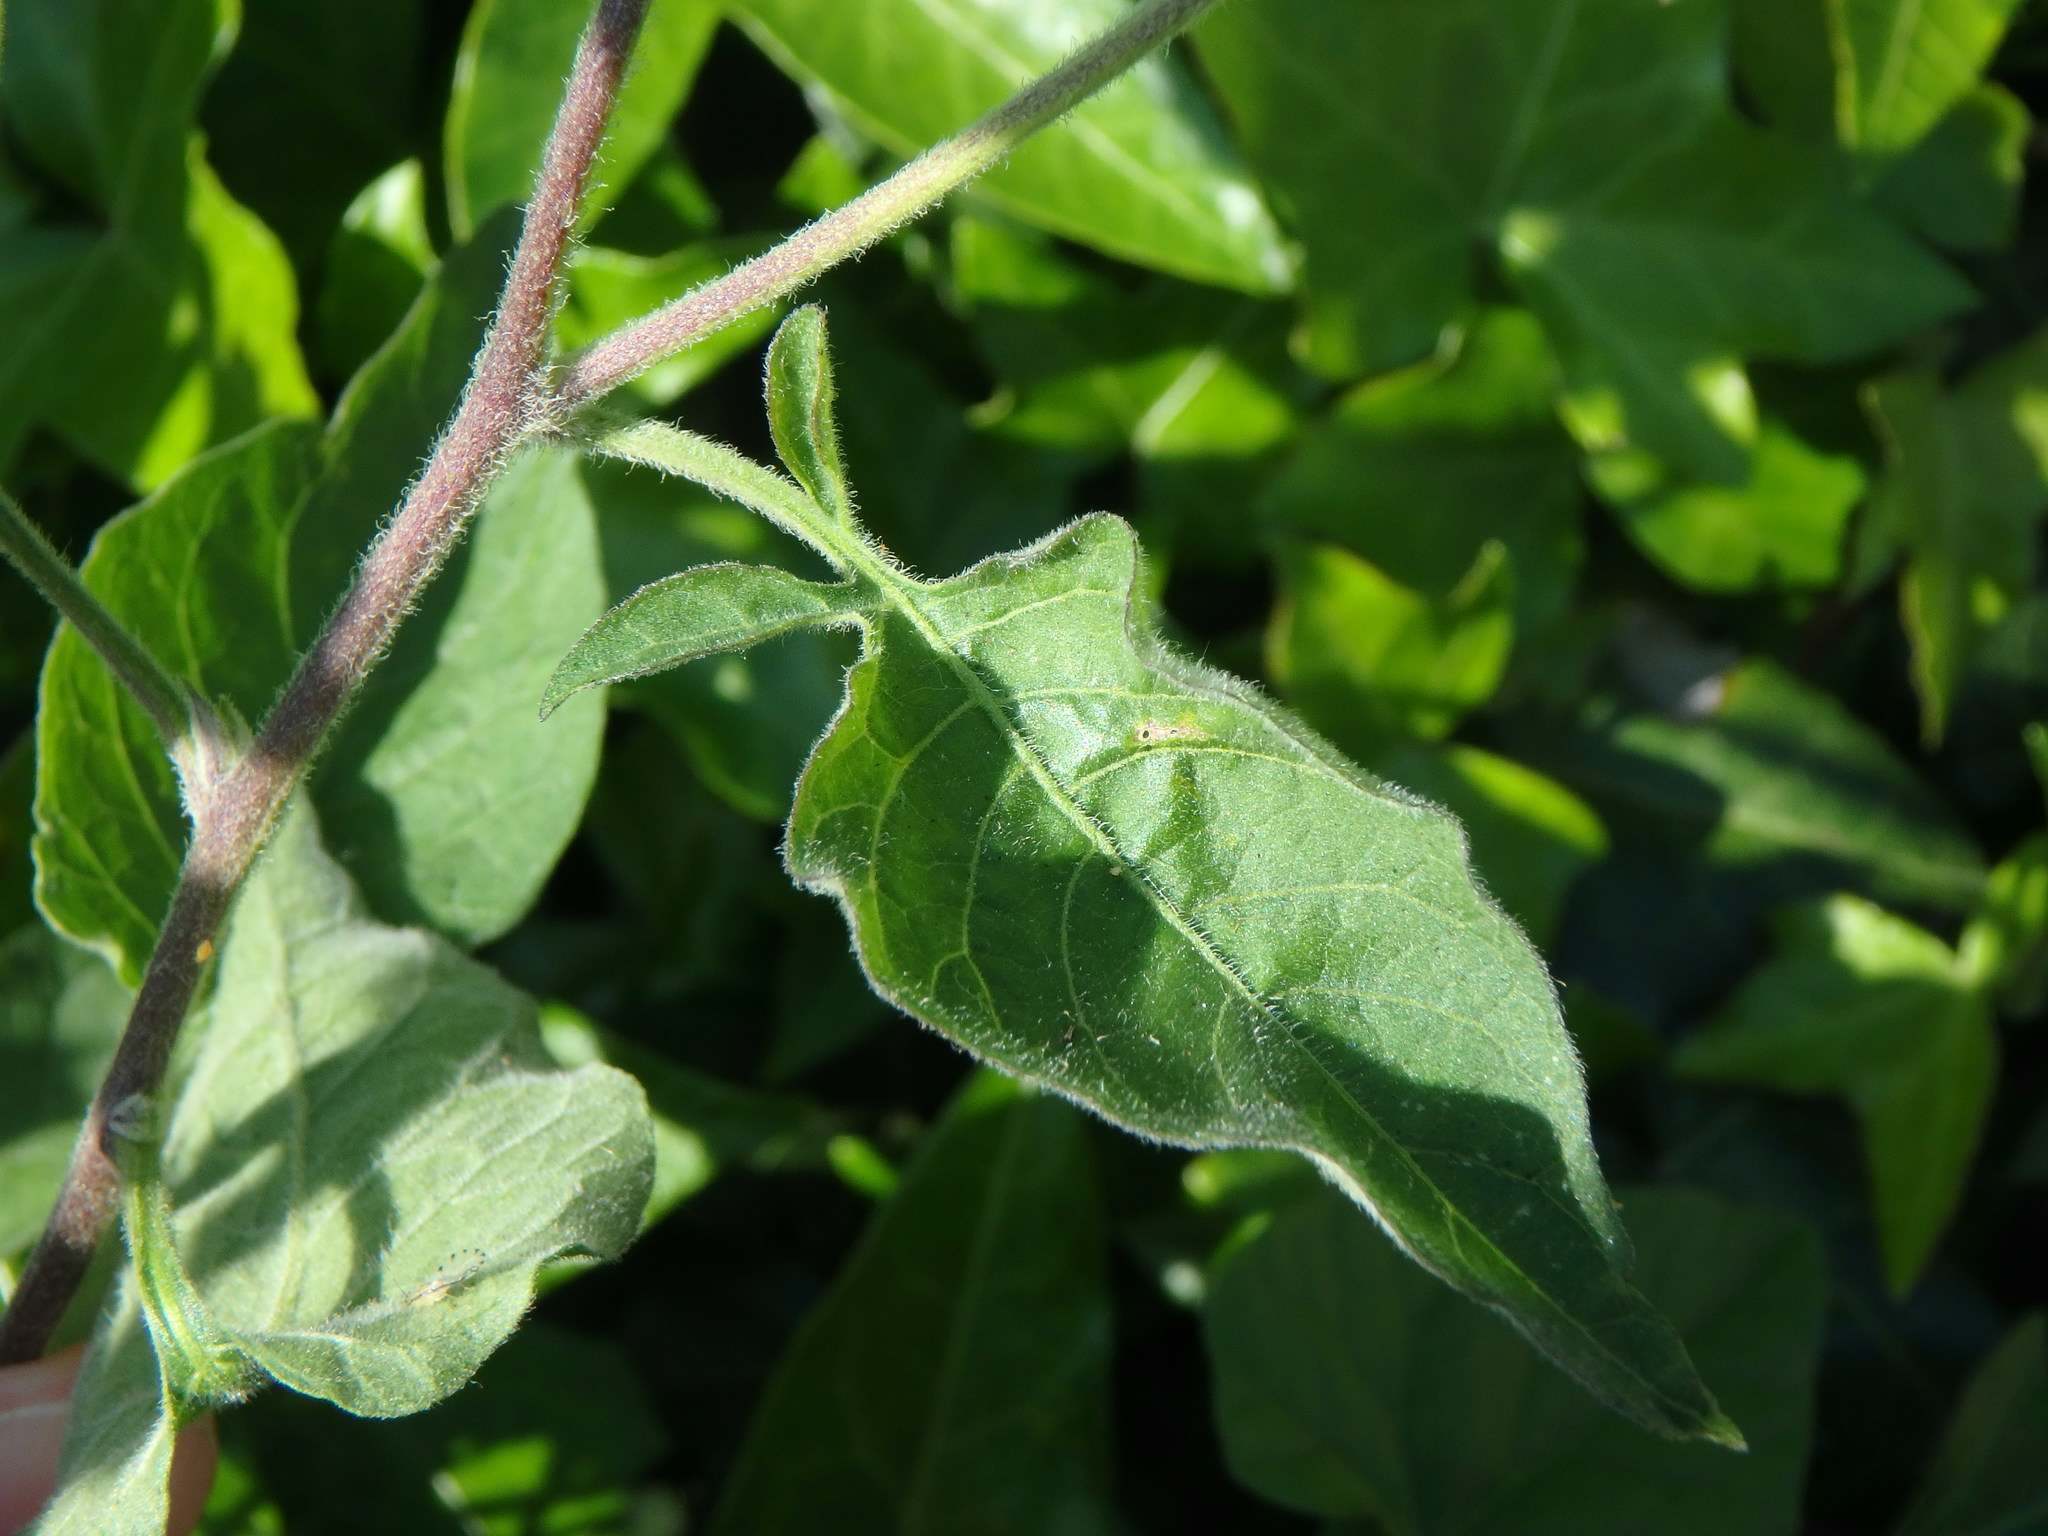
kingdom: Plantae
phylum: Tracheophyta
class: Magnoliopsida
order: Solanales
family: Solanaceae
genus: Solanum
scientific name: Solanum dulcamara
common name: Climbing nightshade
